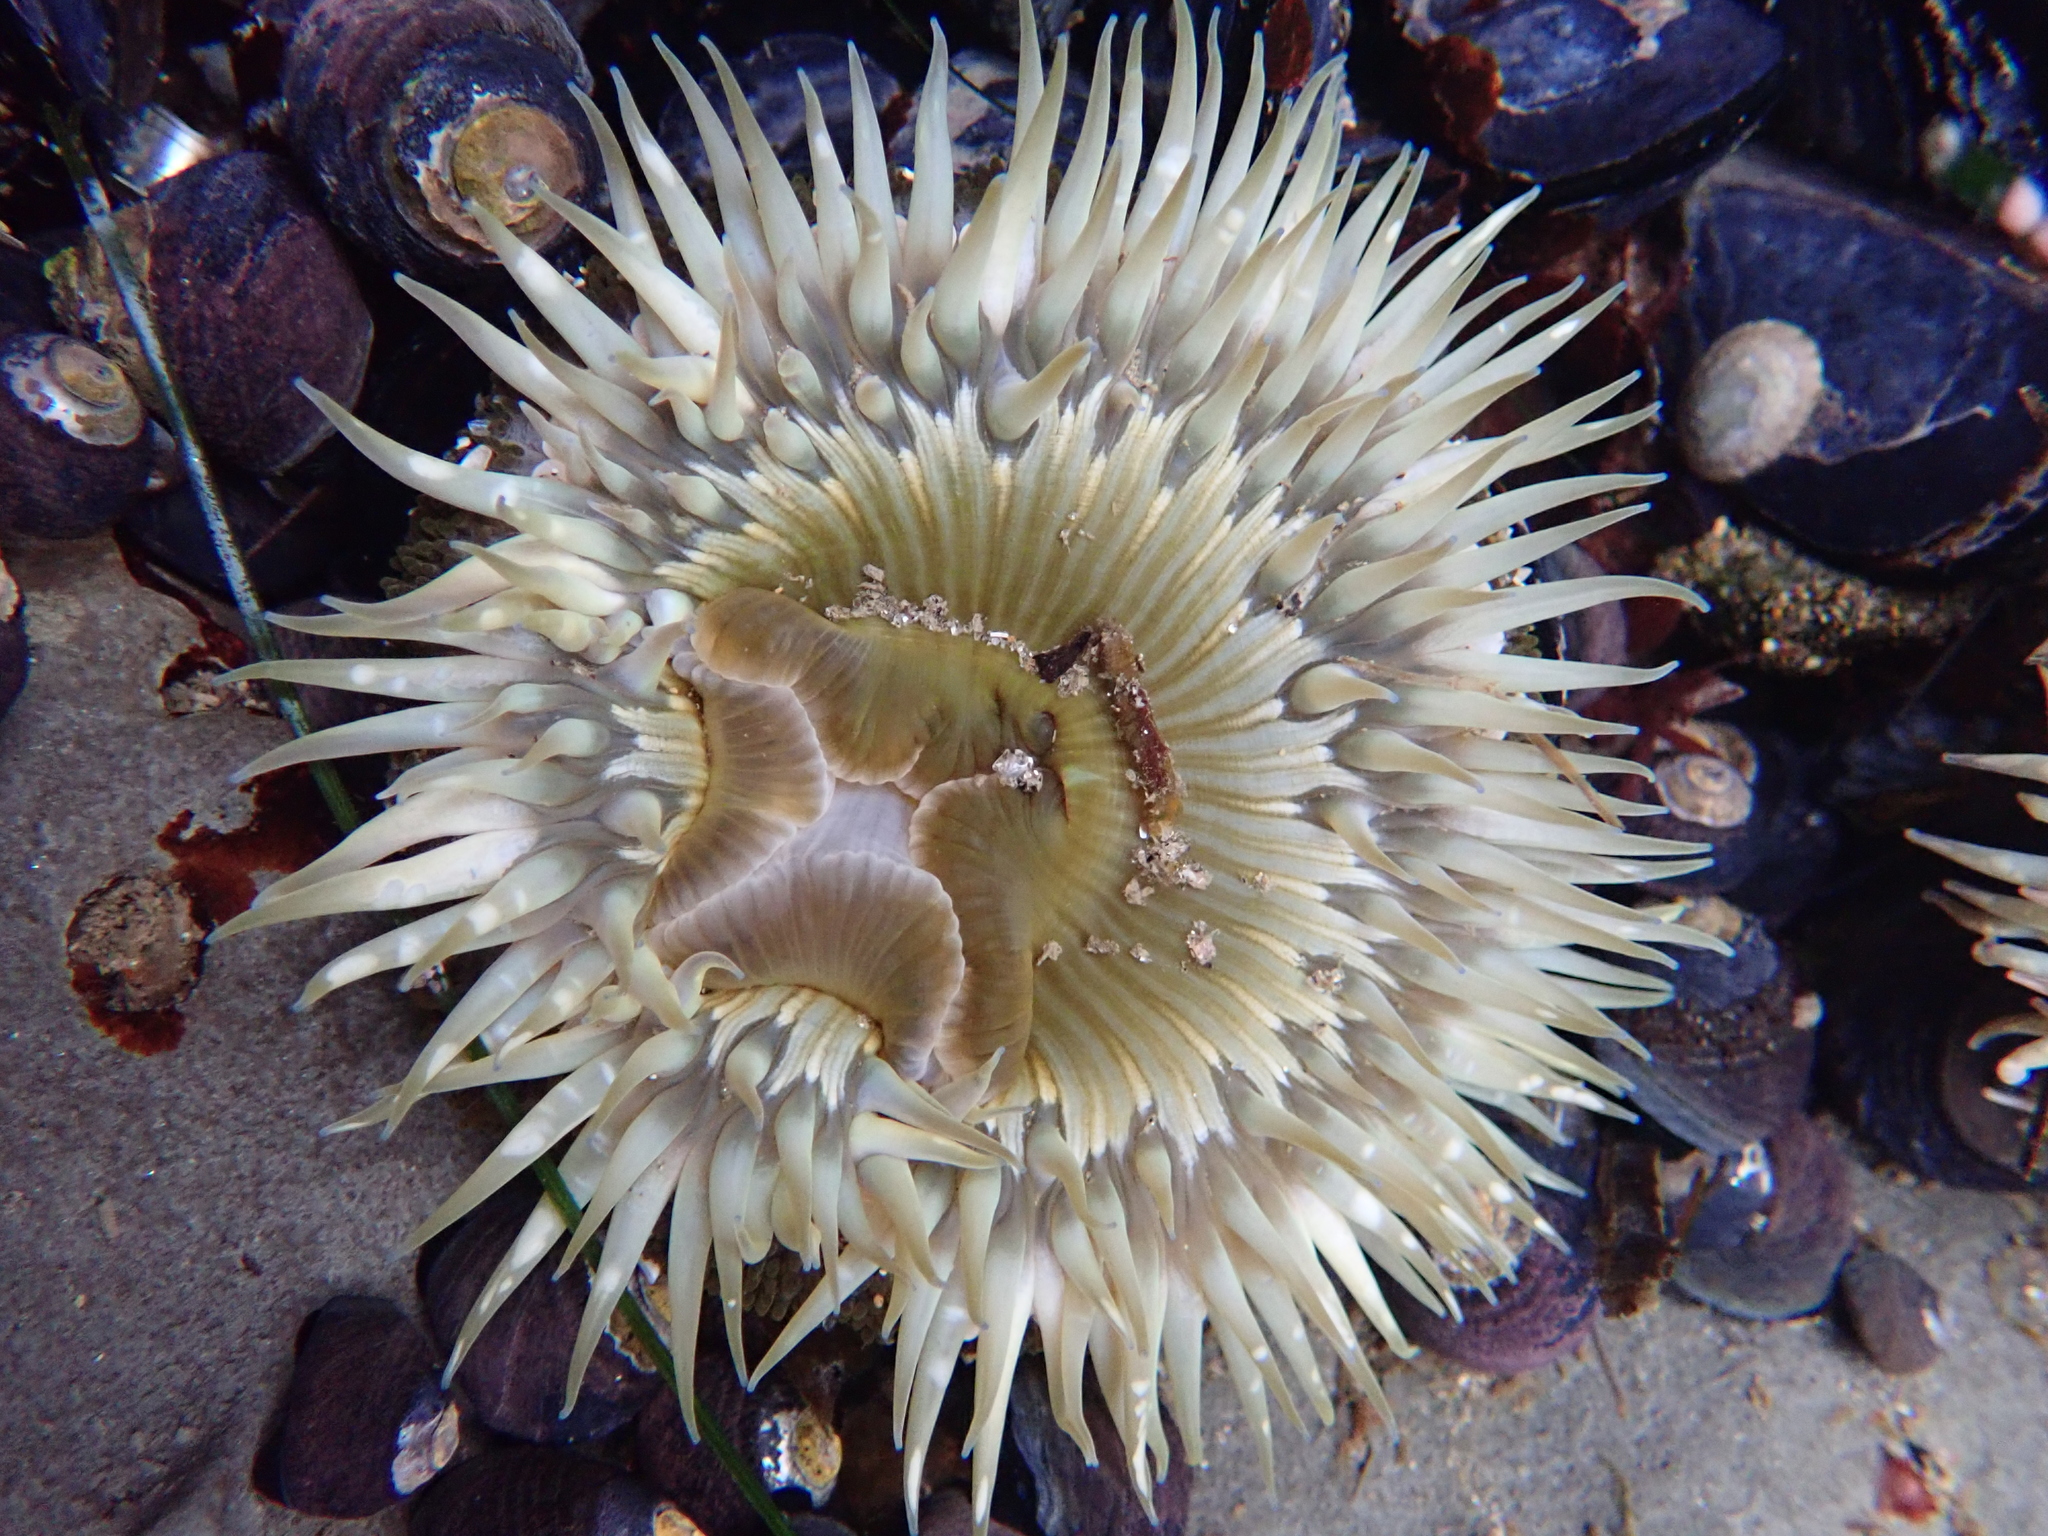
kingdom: Animalia
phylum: Cnidaria
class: Anthozoa
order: Actiniaria
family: Actiniidae
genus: Anthopleura
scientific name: Anthopleura sola
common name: Sun anemone
